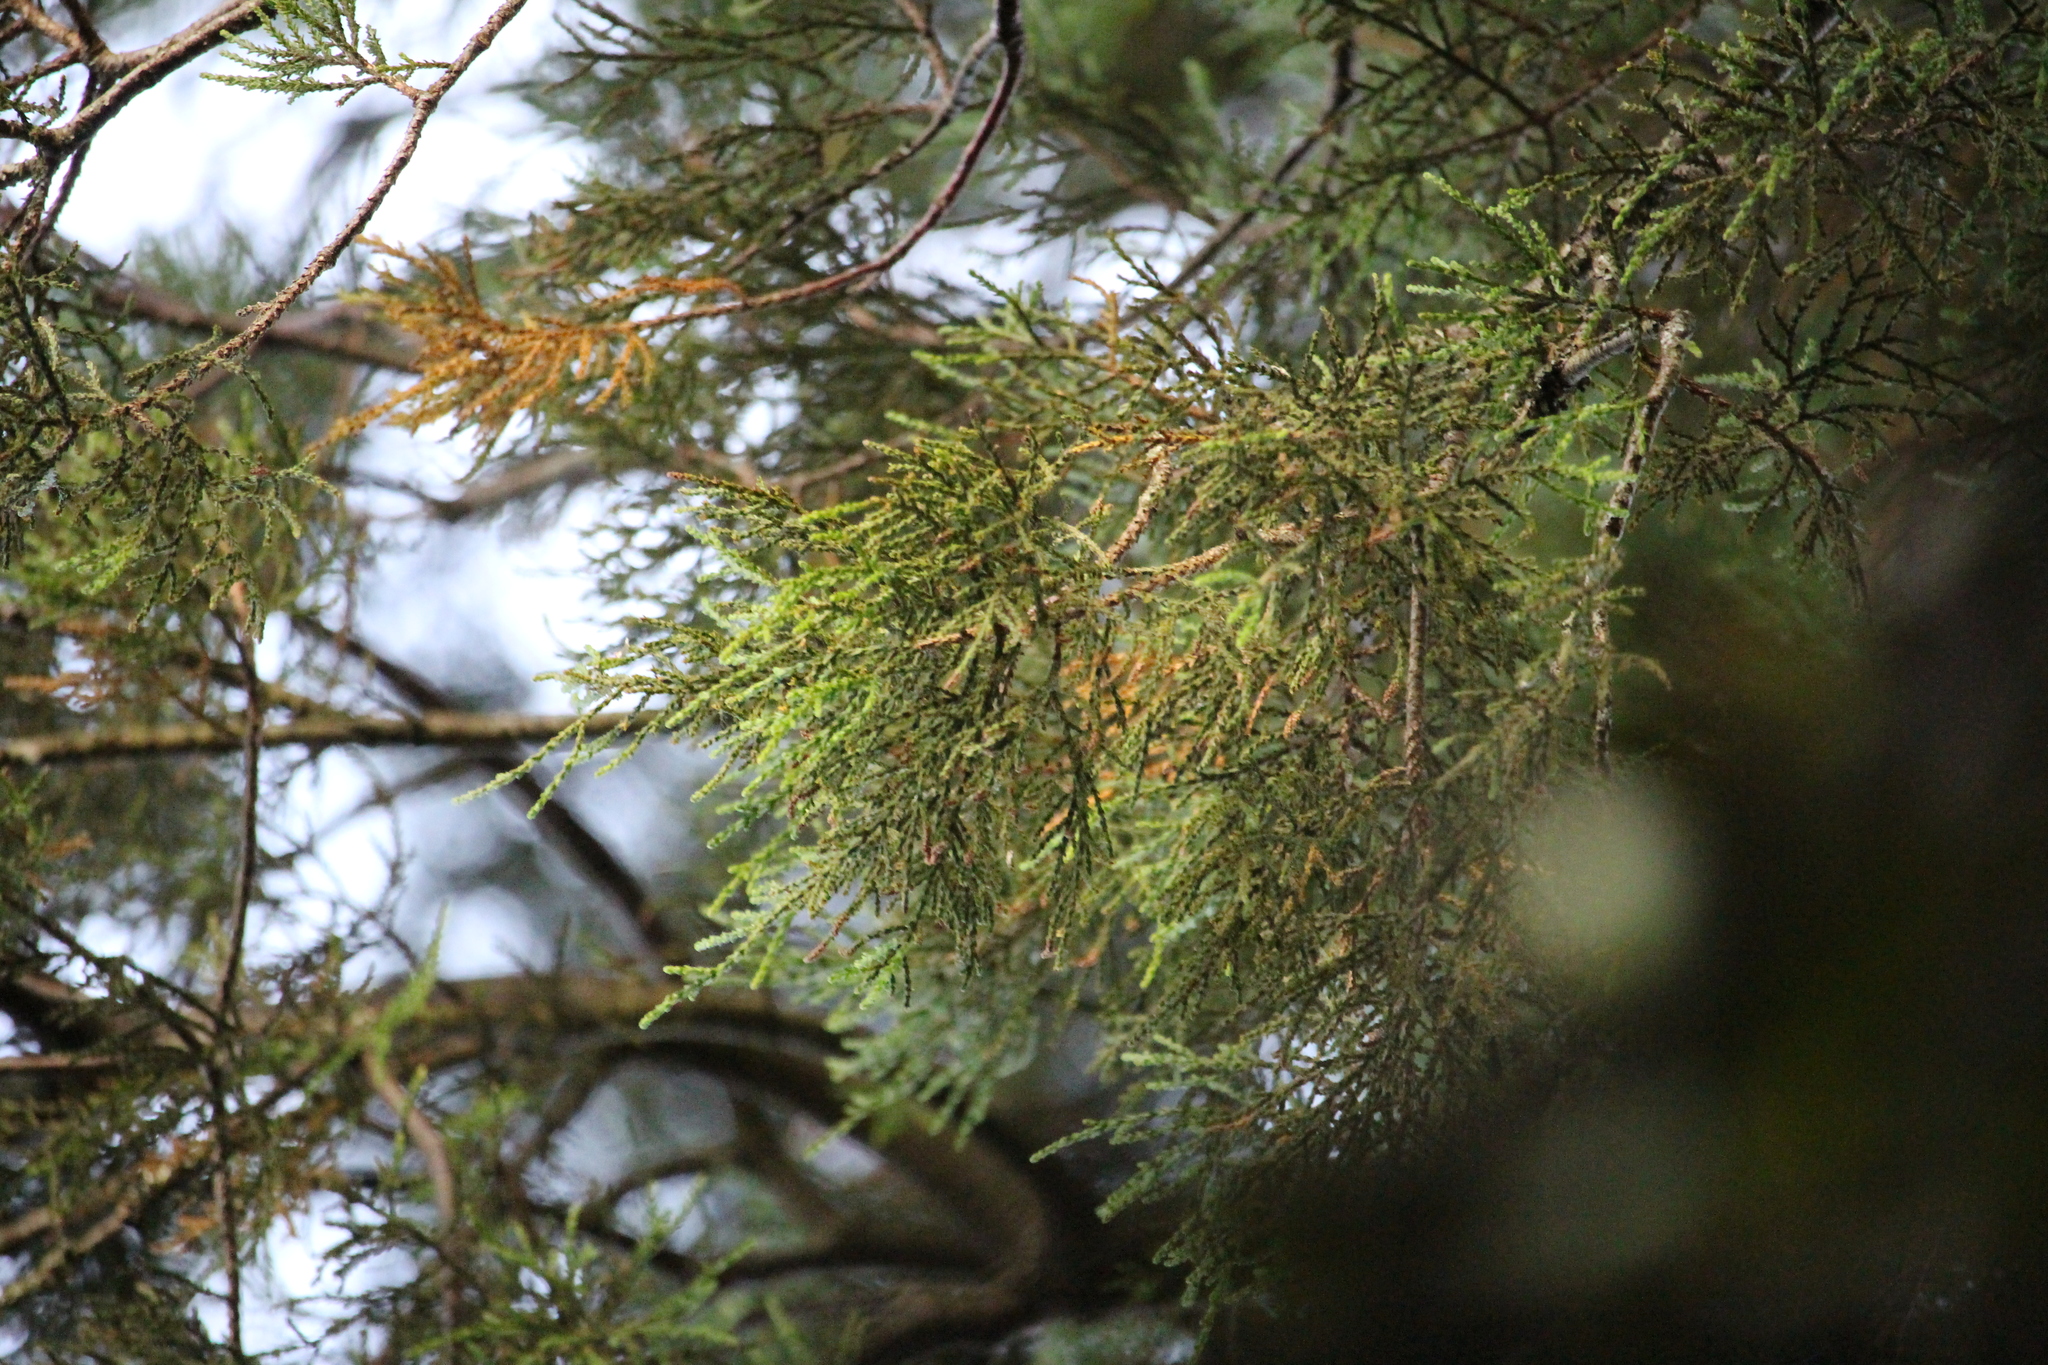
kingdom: Plantae
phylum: Tracheophyta
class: Pinopsida
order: Pinales
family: Podocarpaceae
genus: Dacrycarpus
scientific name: Dacrycarpus dacrydioides
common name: White pine
